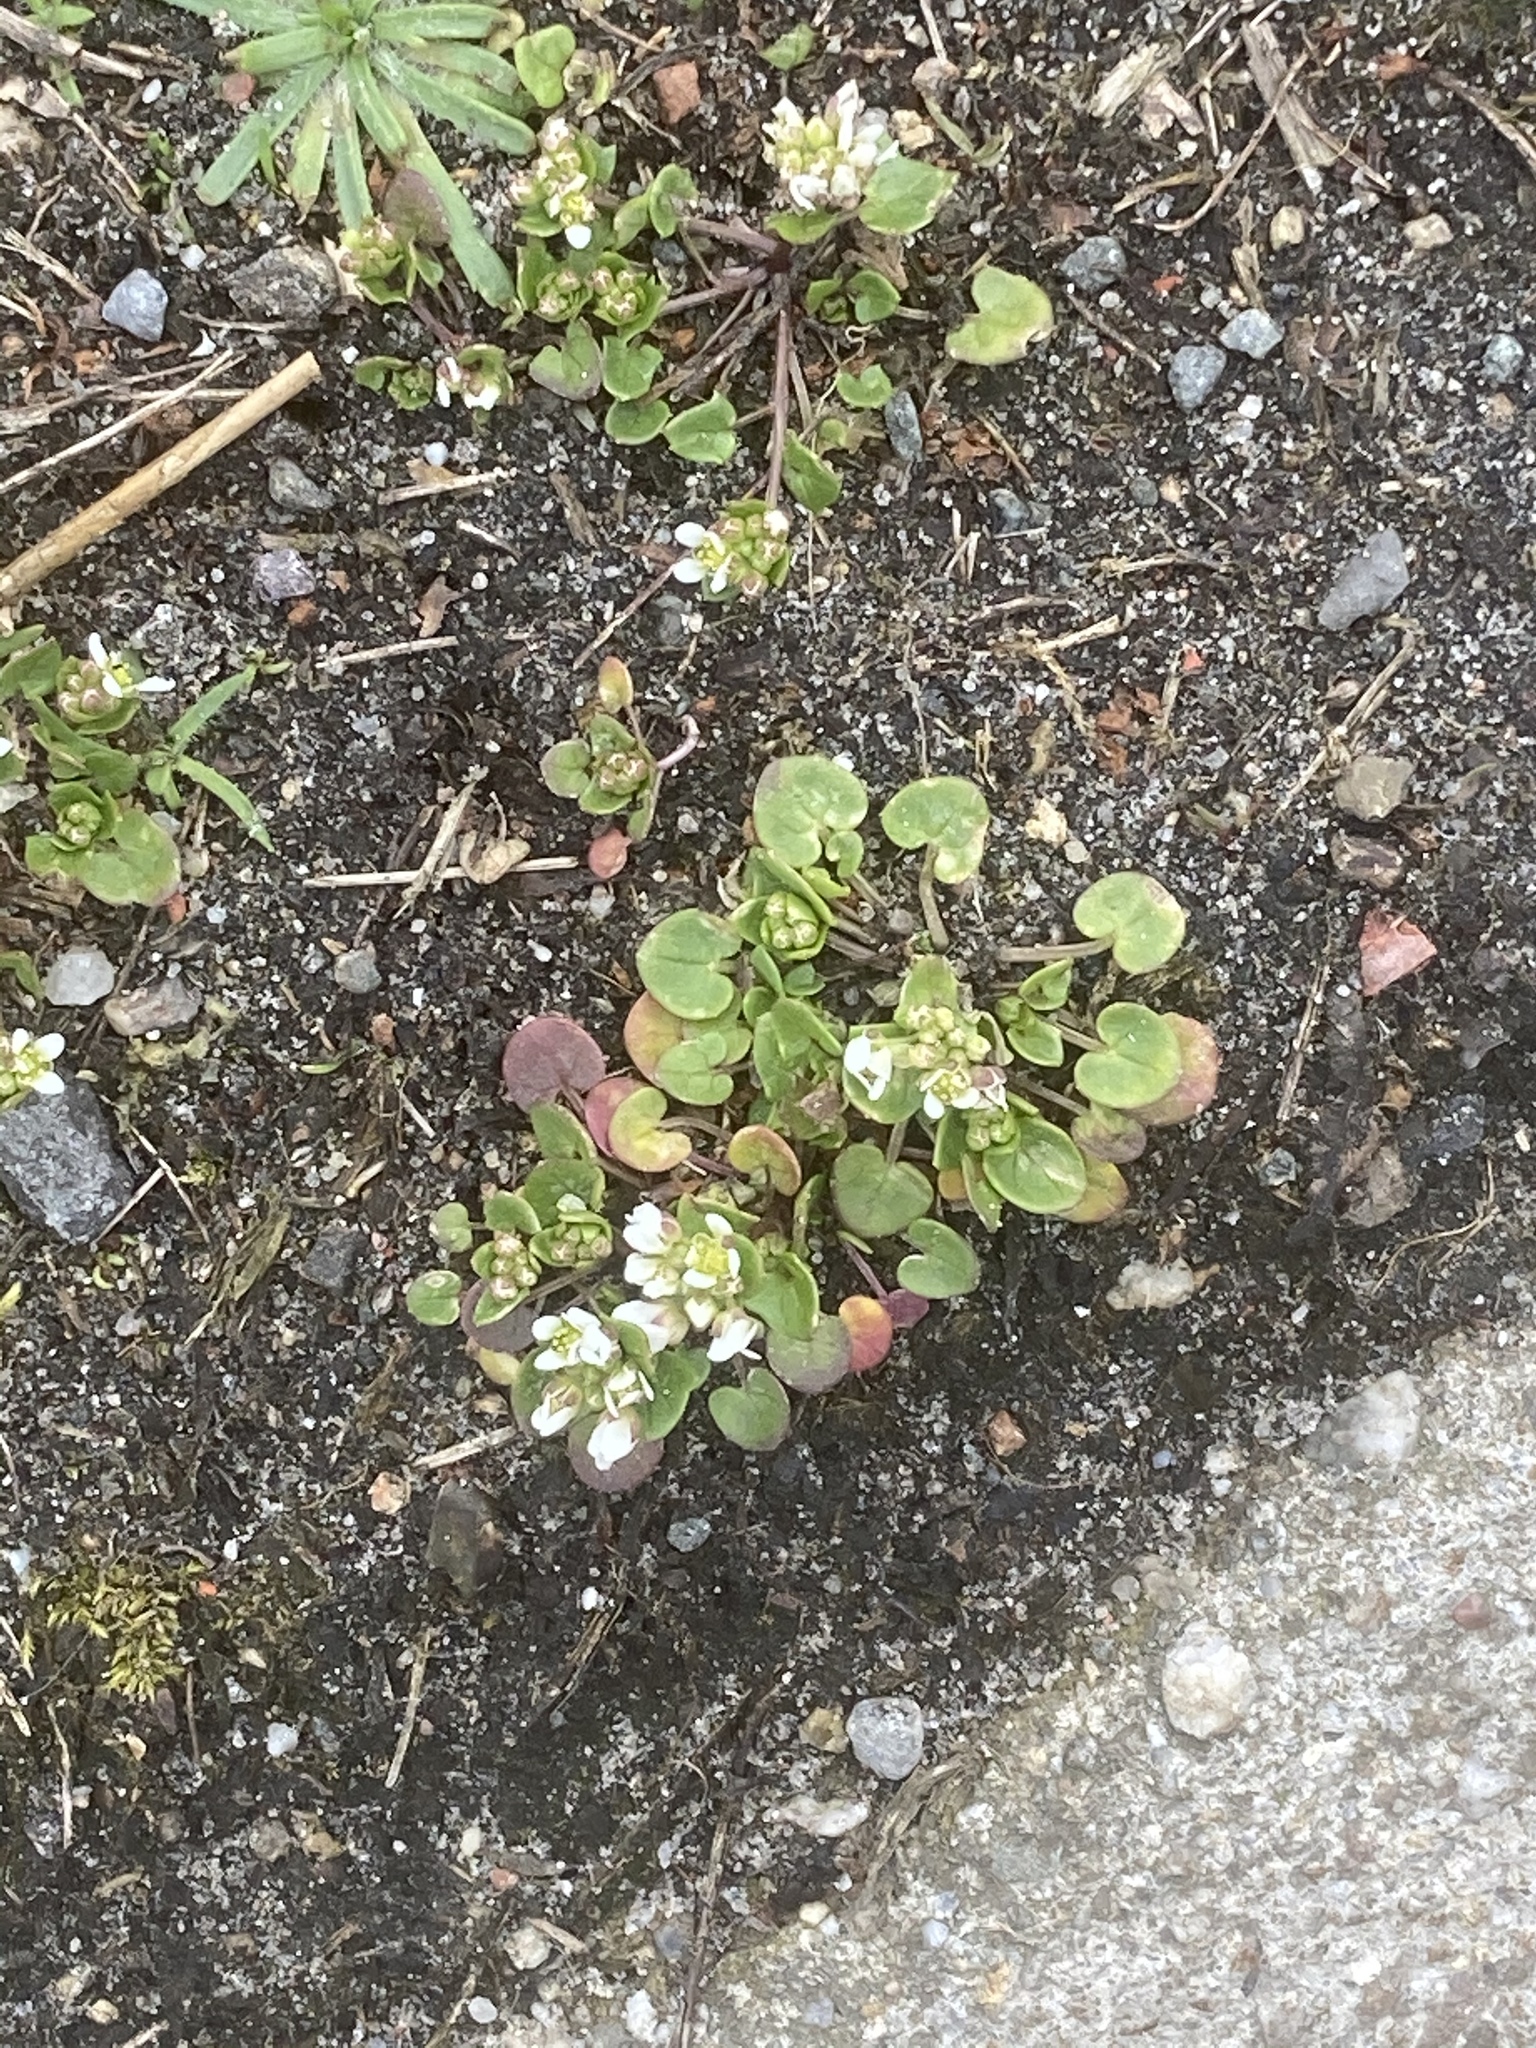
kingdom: Plantae
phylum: Tracheophyta
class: Magnoliopsida
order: Brassicales
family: Brassicaceae
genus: Cochlearia
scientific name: Cochlearia danica
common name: Early scurvygrass
